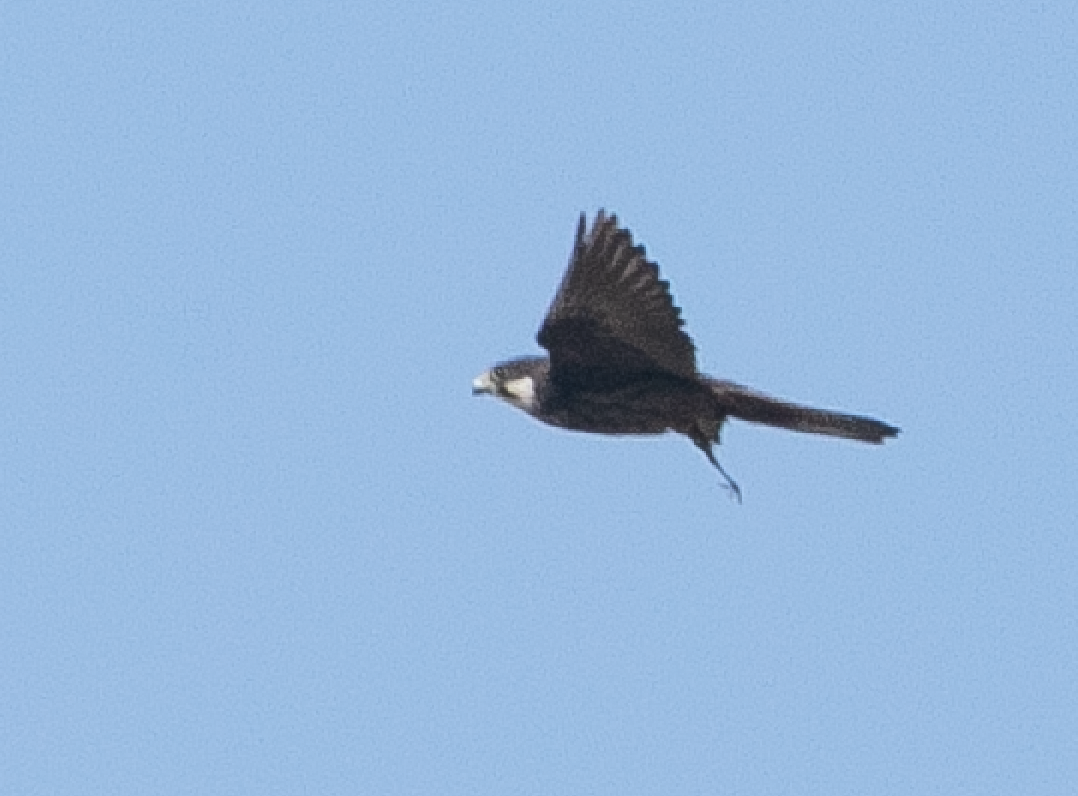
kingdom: Animalia
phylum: Chordata
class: Aves
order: Falconiformes
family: Falconidae
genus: Falco
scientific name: Falco eleonorae
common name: Eleonora's falcon
